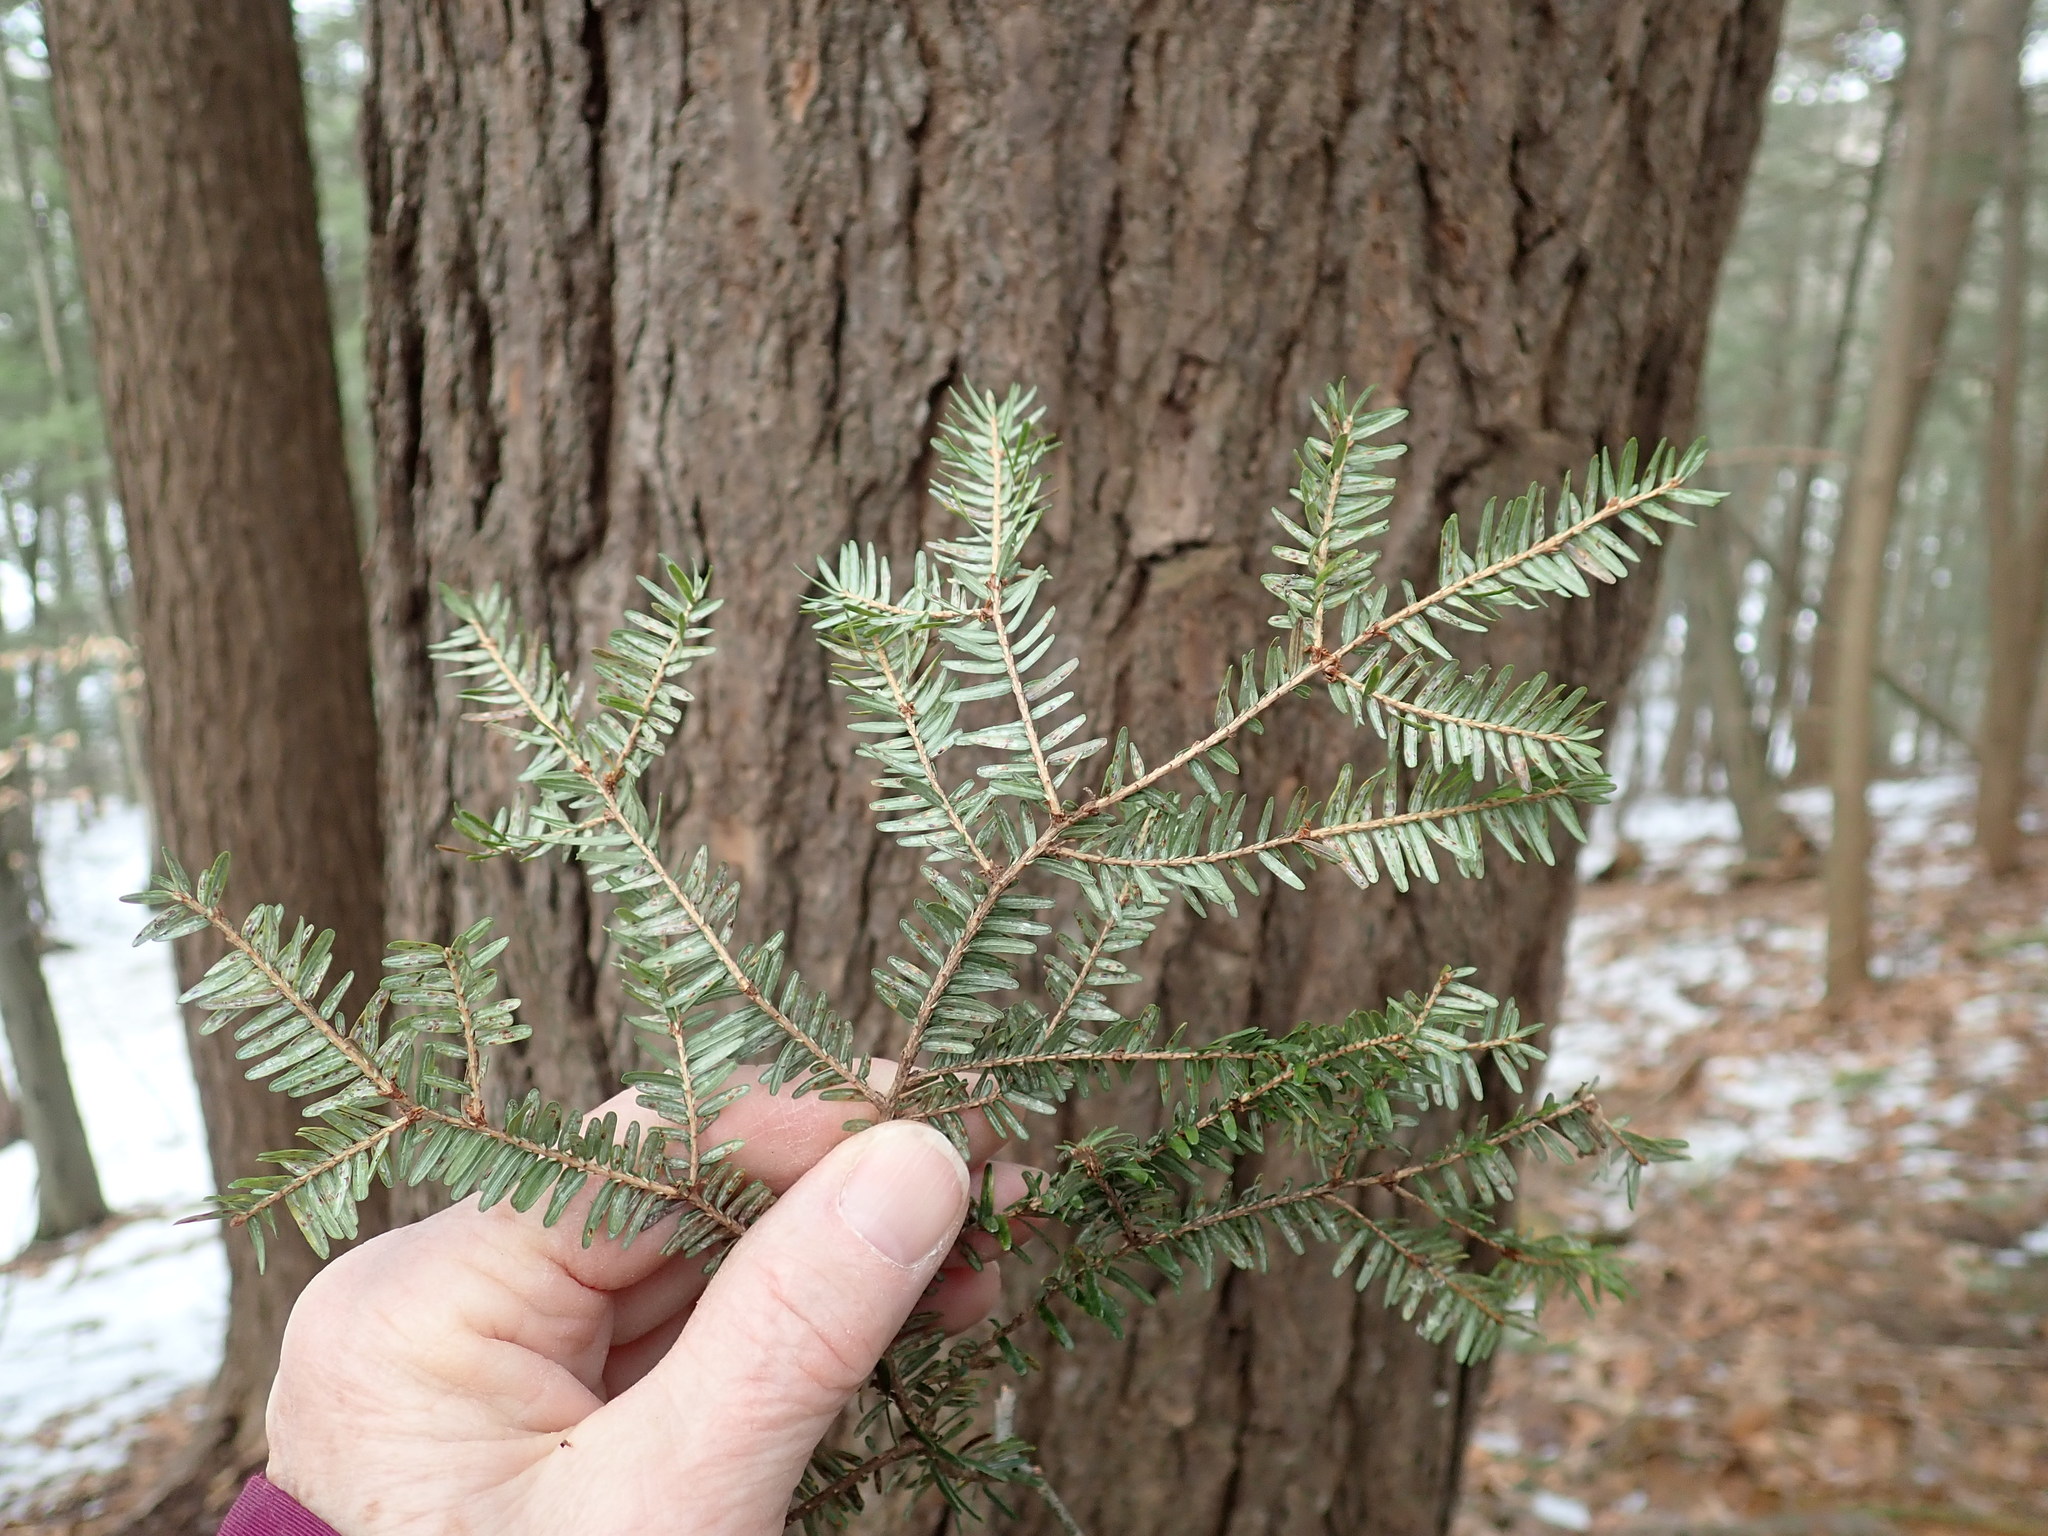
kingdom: Plantae
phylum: Tracheophyta
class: Pinopsida
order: Pinales
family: Pinaceae
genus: Tsuga
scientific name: Tsuga canadensis
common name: Eastern hemlock
